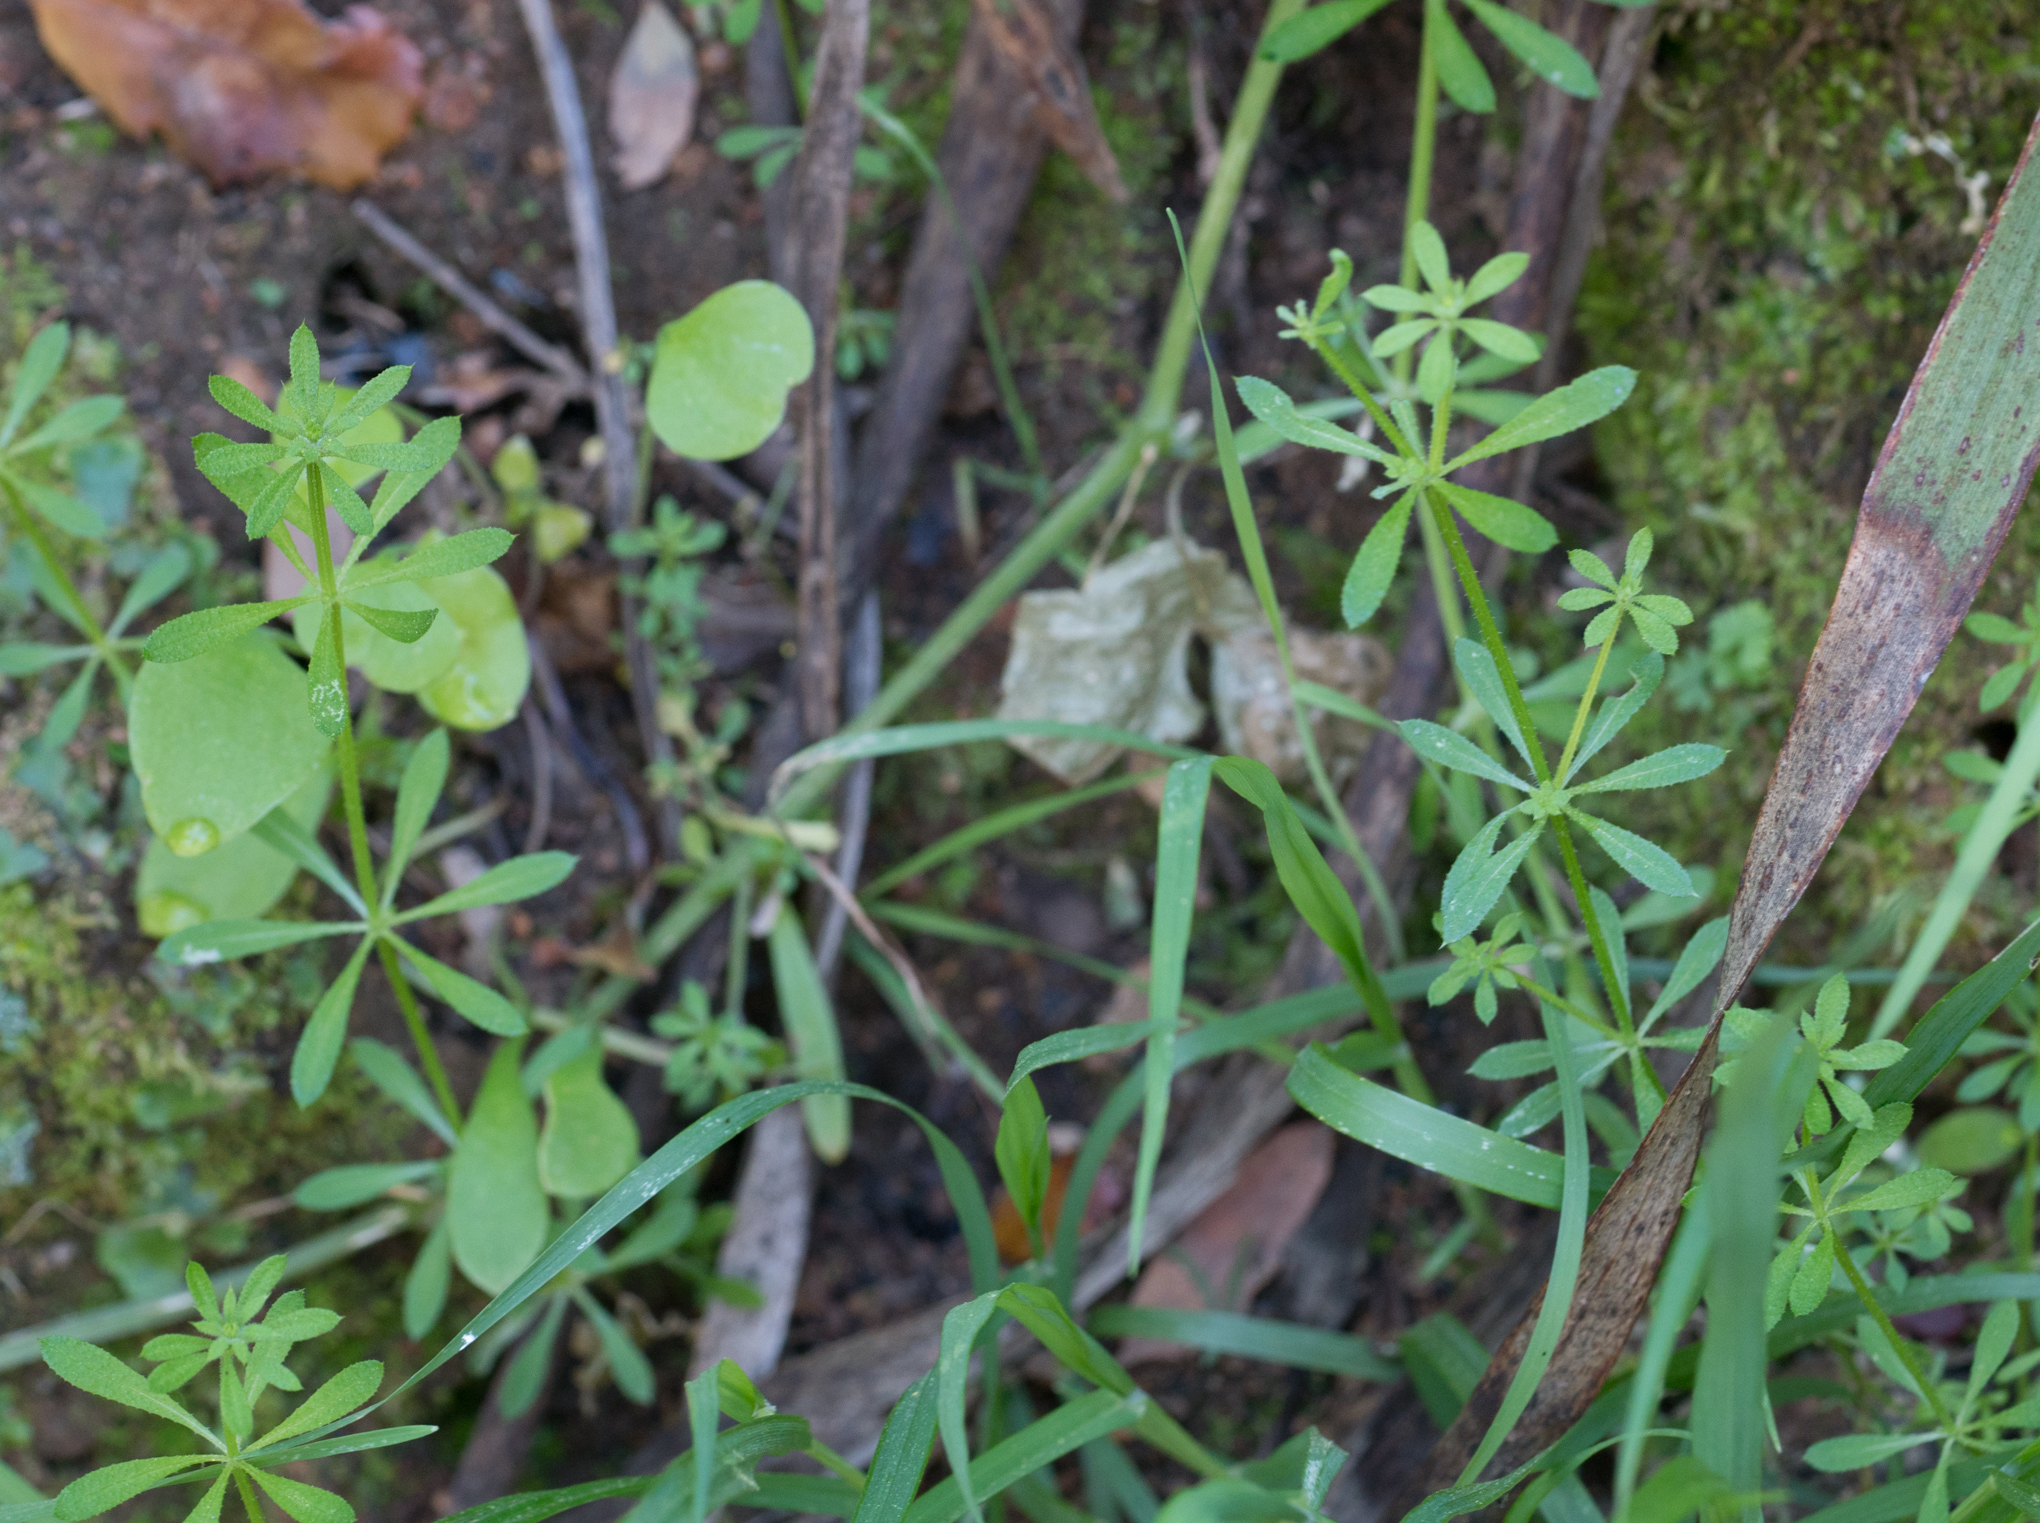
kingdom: Plantae
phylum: Tracheophyta
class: Magnoliopsida
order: Gentianales
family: Rubiaceae
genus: Galium
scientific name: Galium aparine
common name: Cleavers
